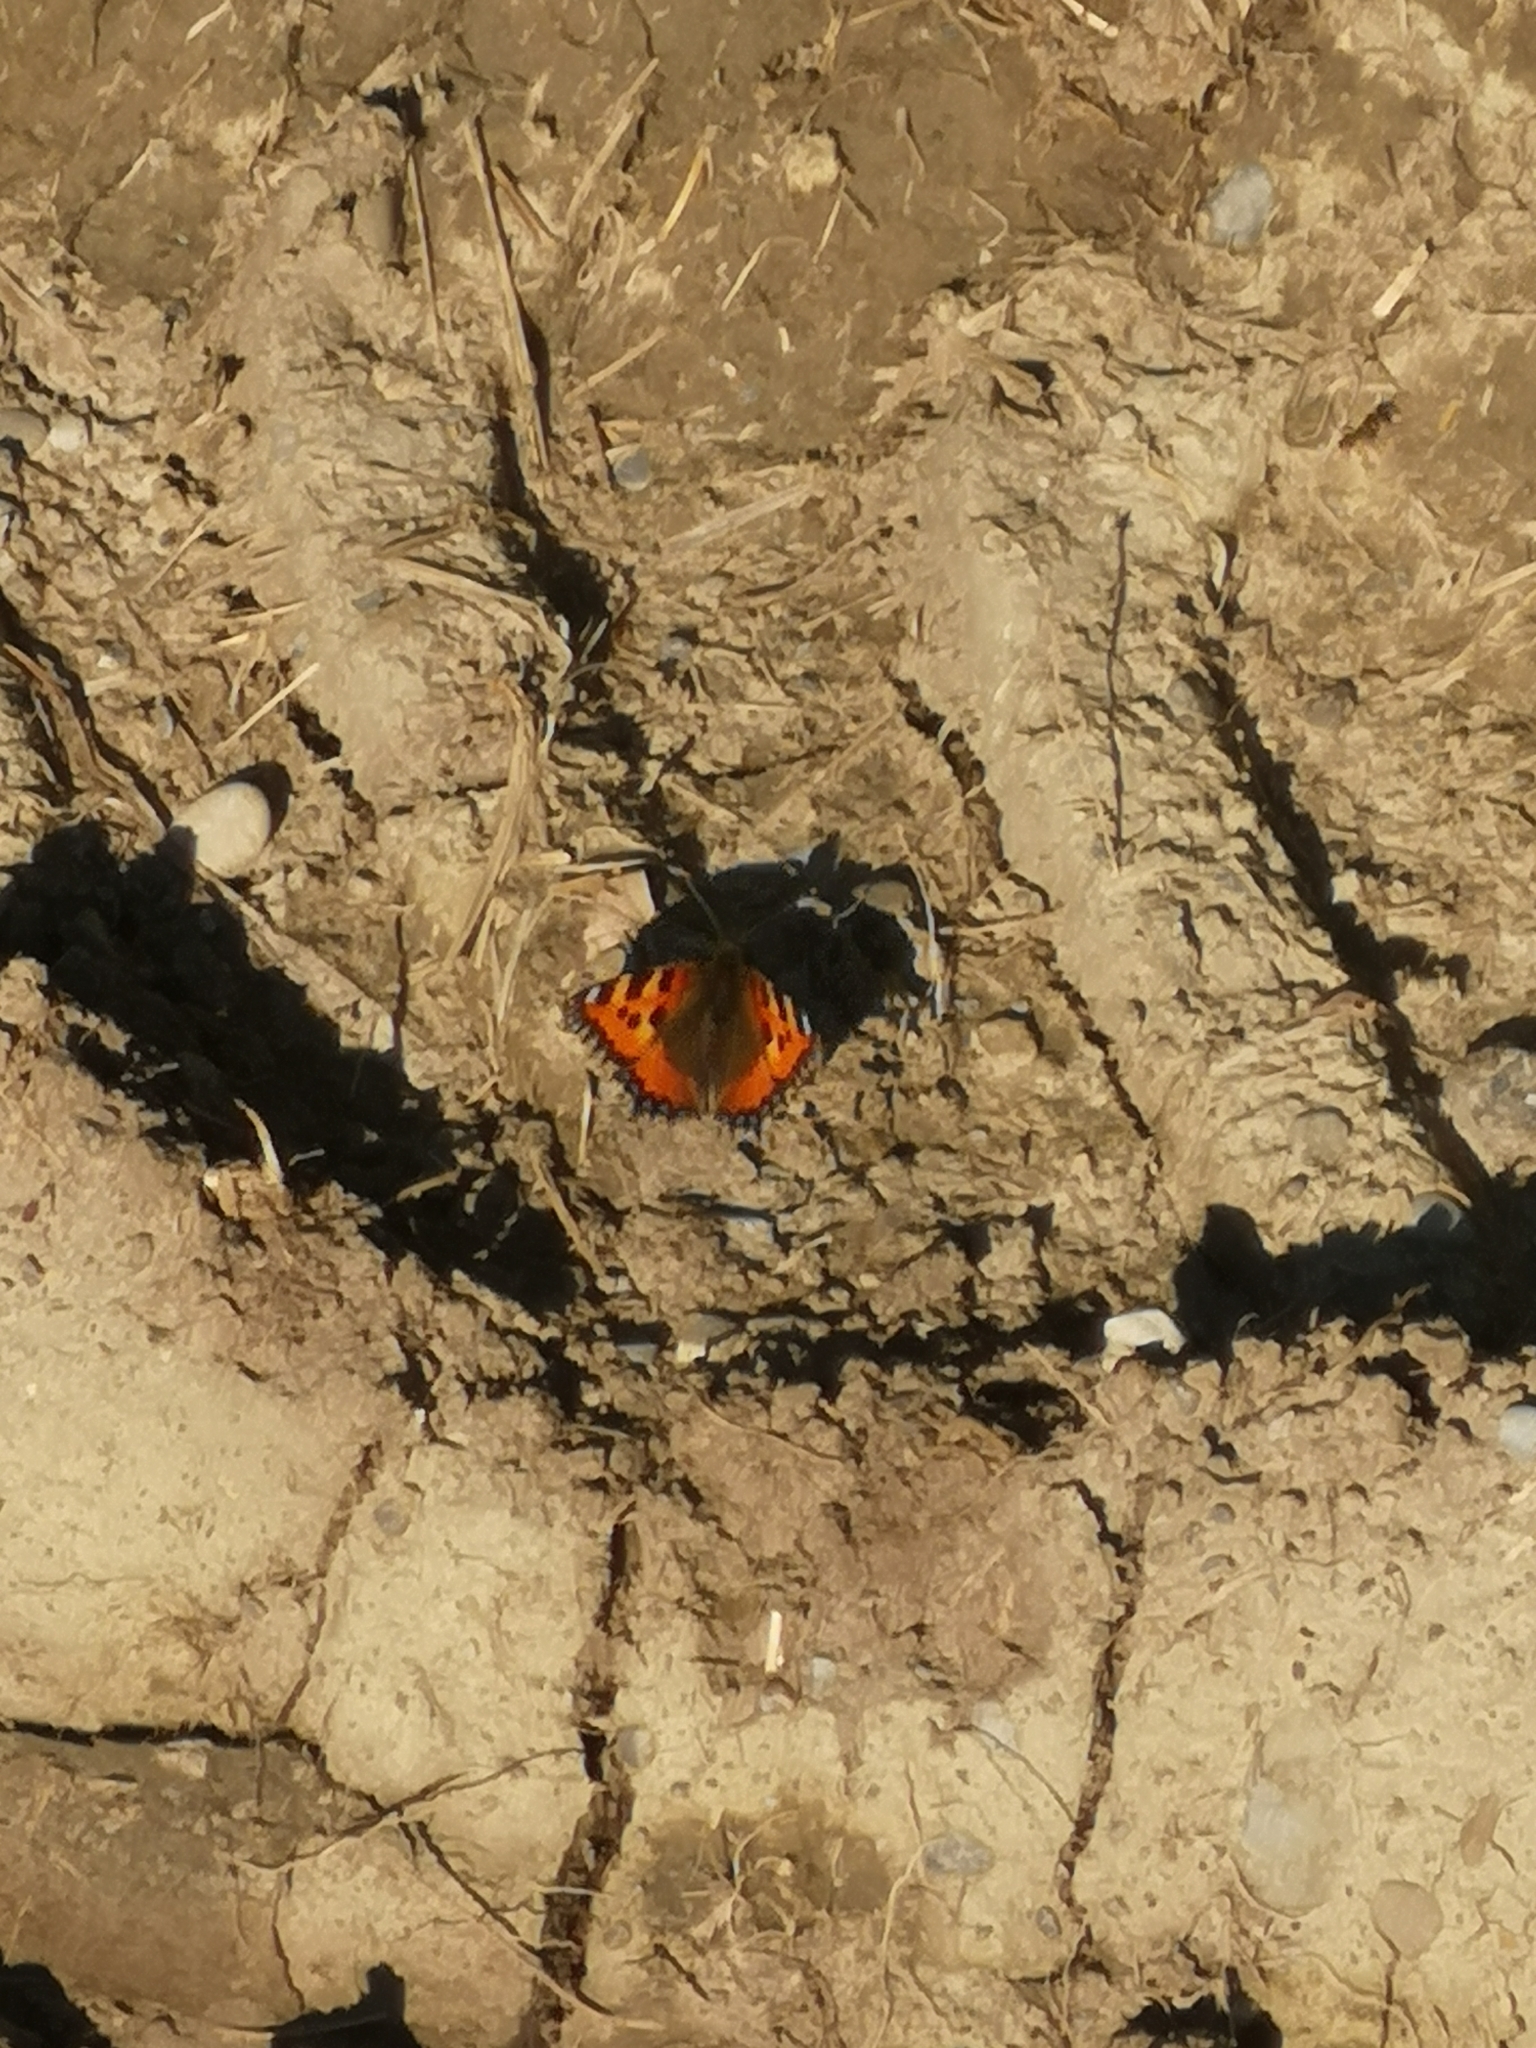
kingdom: Animalia
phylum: Arthropoda
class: Insecta
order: Lepidoptera
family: Nymphalidae
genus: Aglais
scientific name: Aglais urticae
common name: Small tortoiseshell
